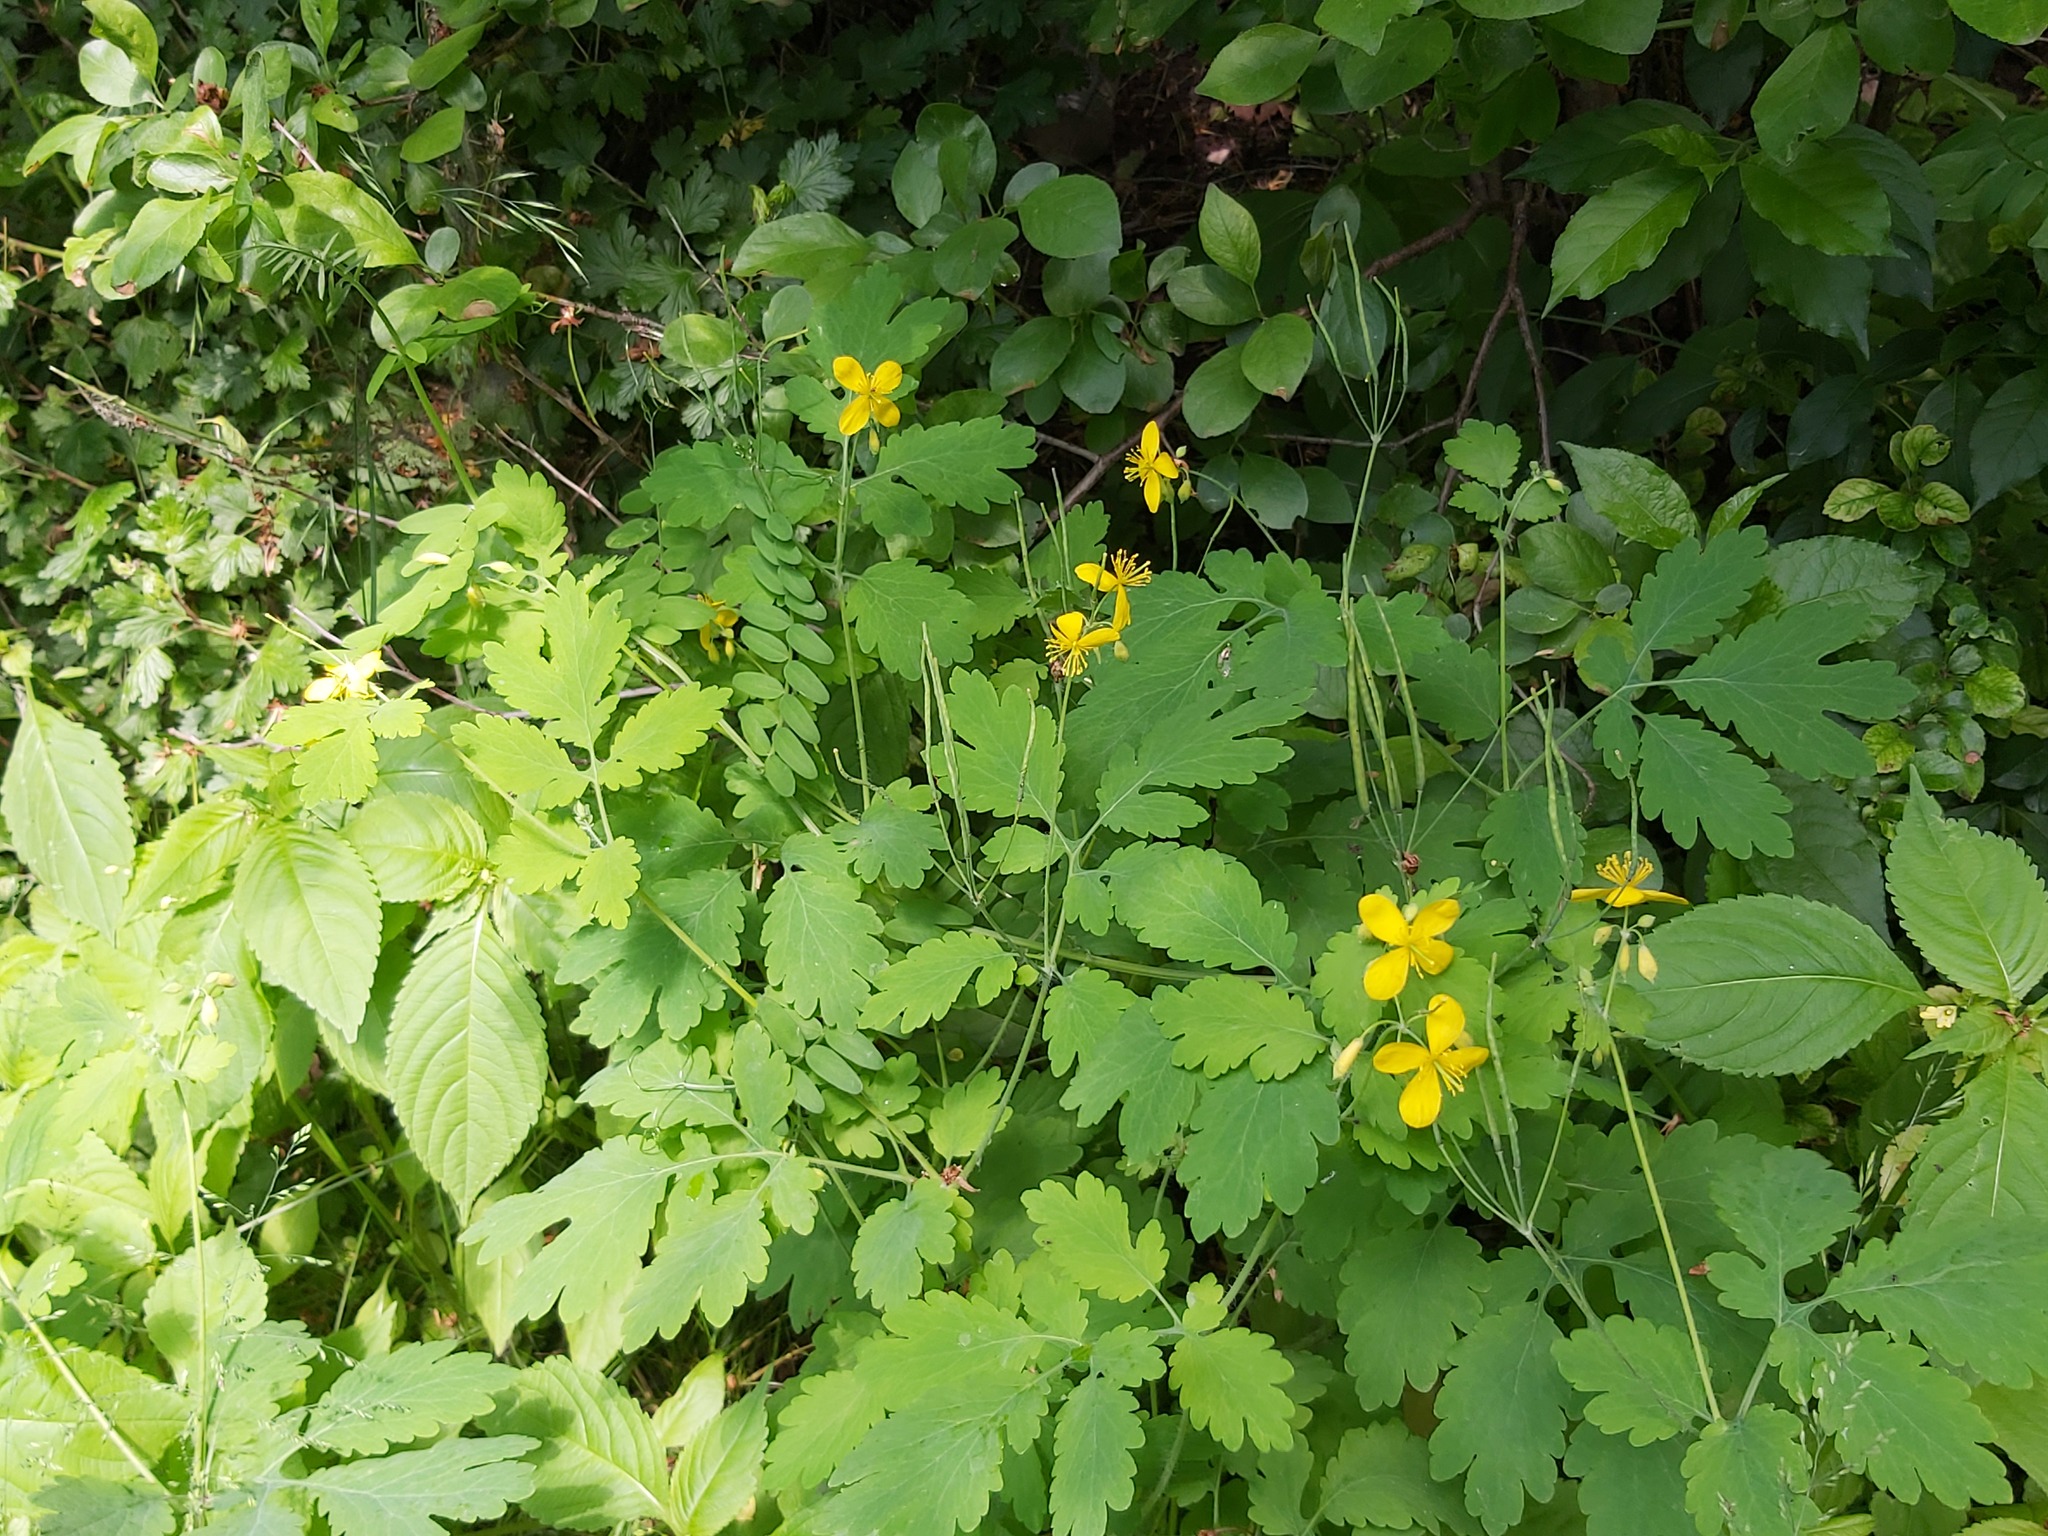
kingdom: Plantae
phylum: Tracheophyta
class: Magnoliopsida
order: Ranunculales
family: Papaveraceae
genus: Chelidonium
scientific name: Chelidonium majus
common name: Greater celandine
